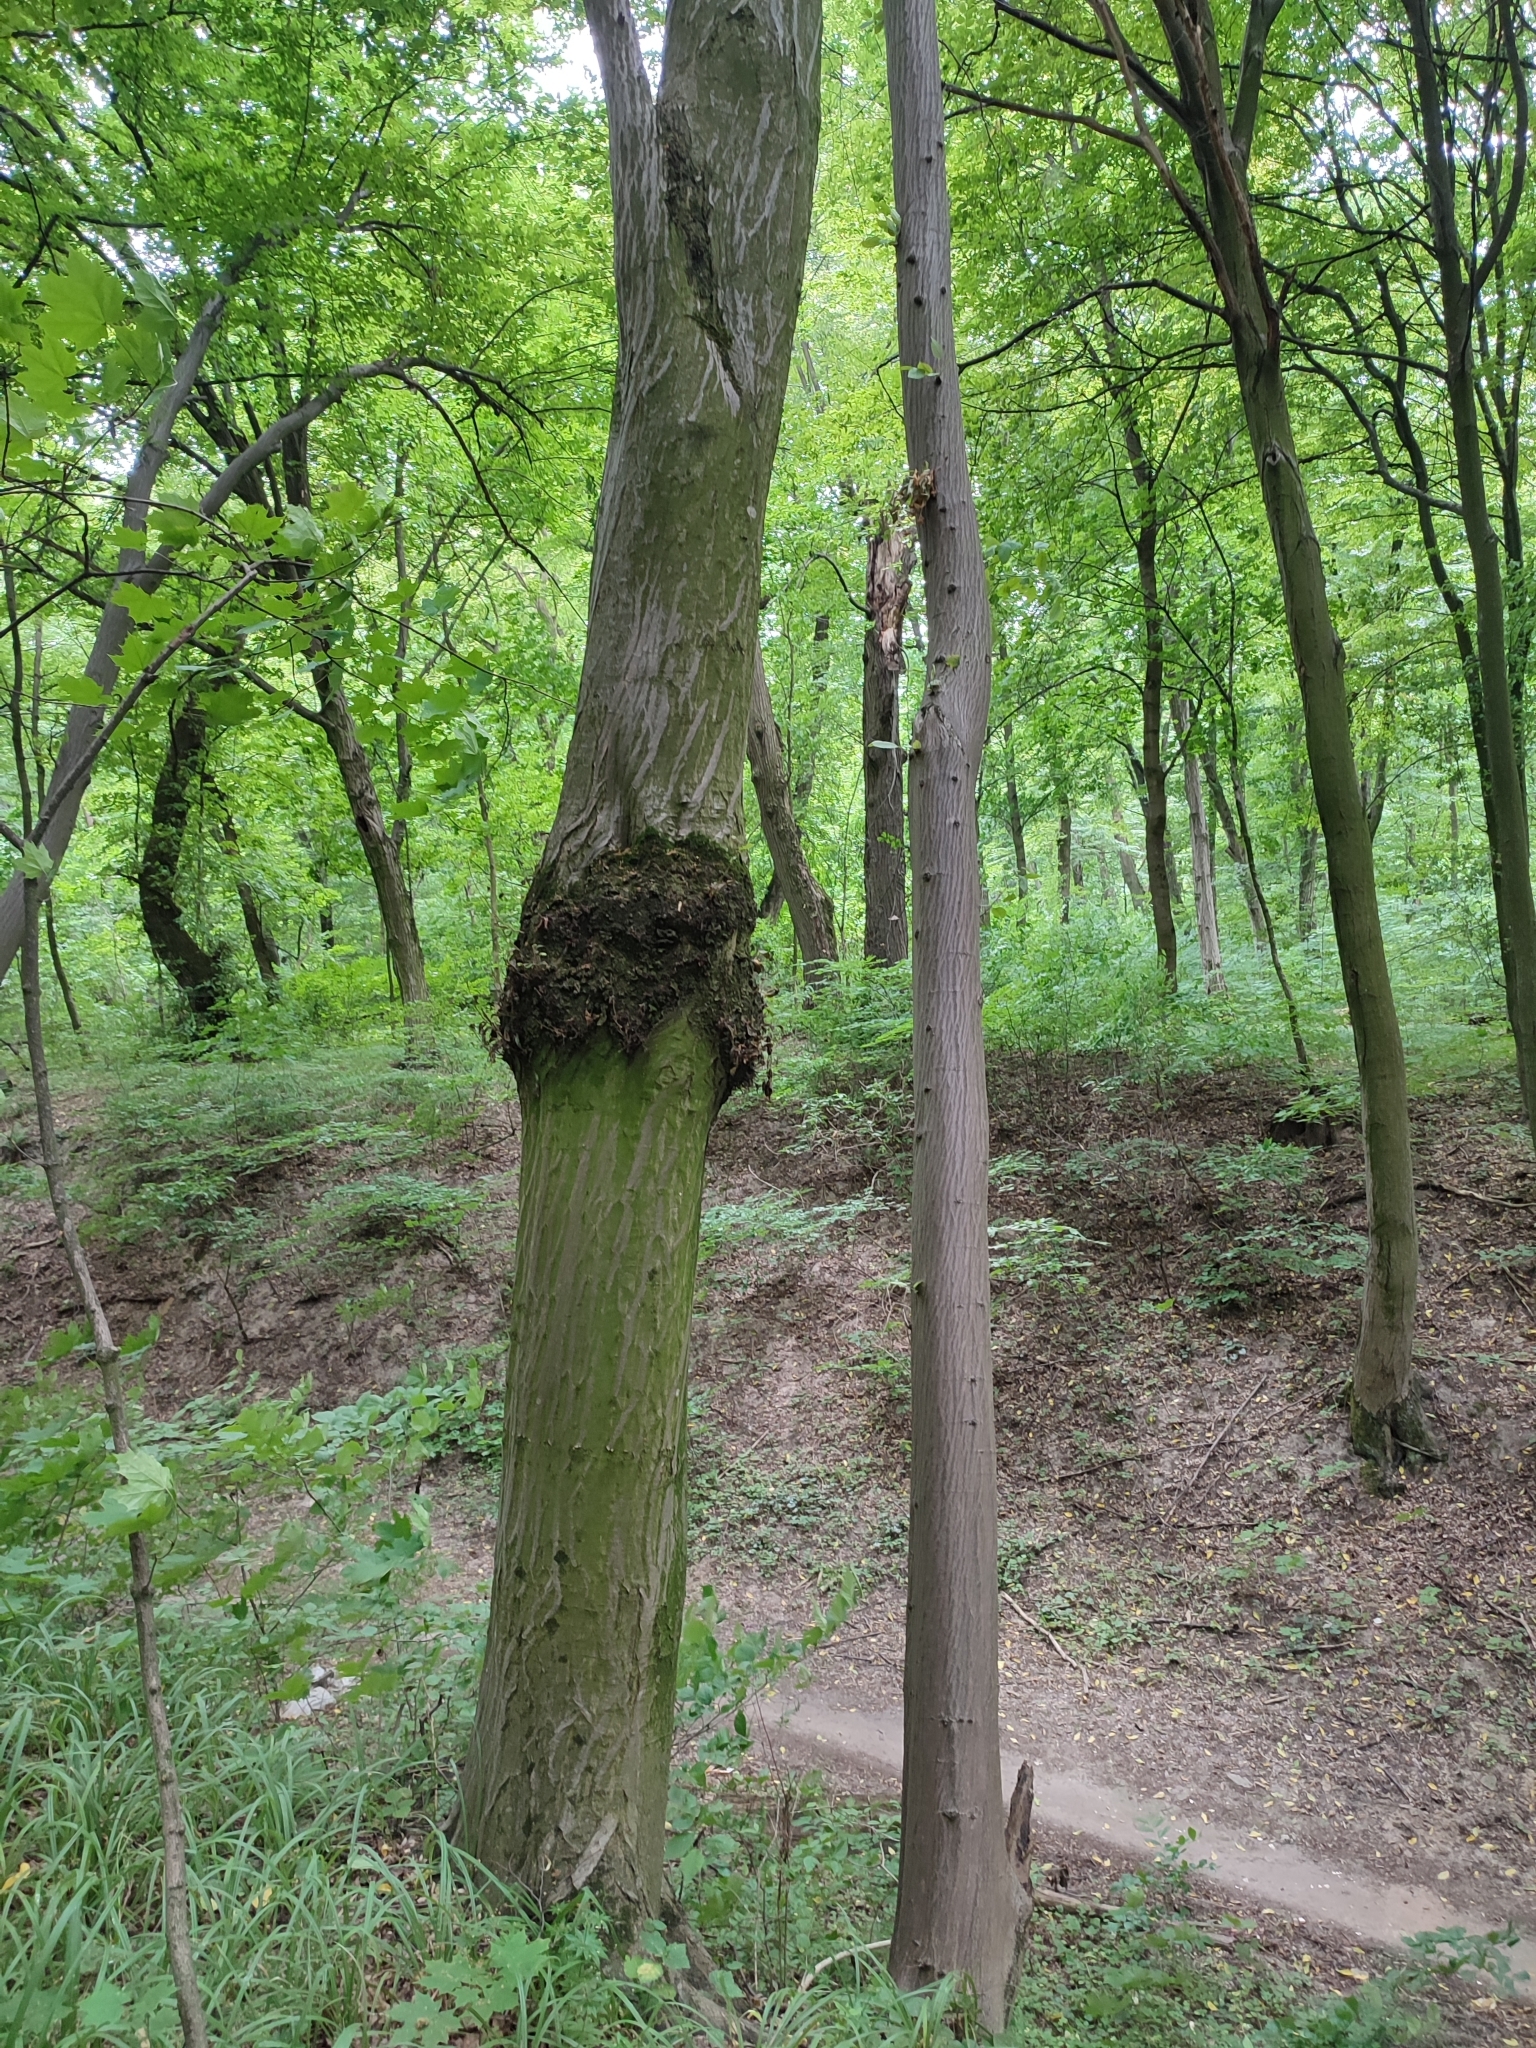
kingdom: Plantae
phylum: Tracheophyta
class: Magnoliopsida
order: Fagales
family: Betulaceae
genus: Carpinus
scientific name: Carpinus betulus
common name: Hornbeam
